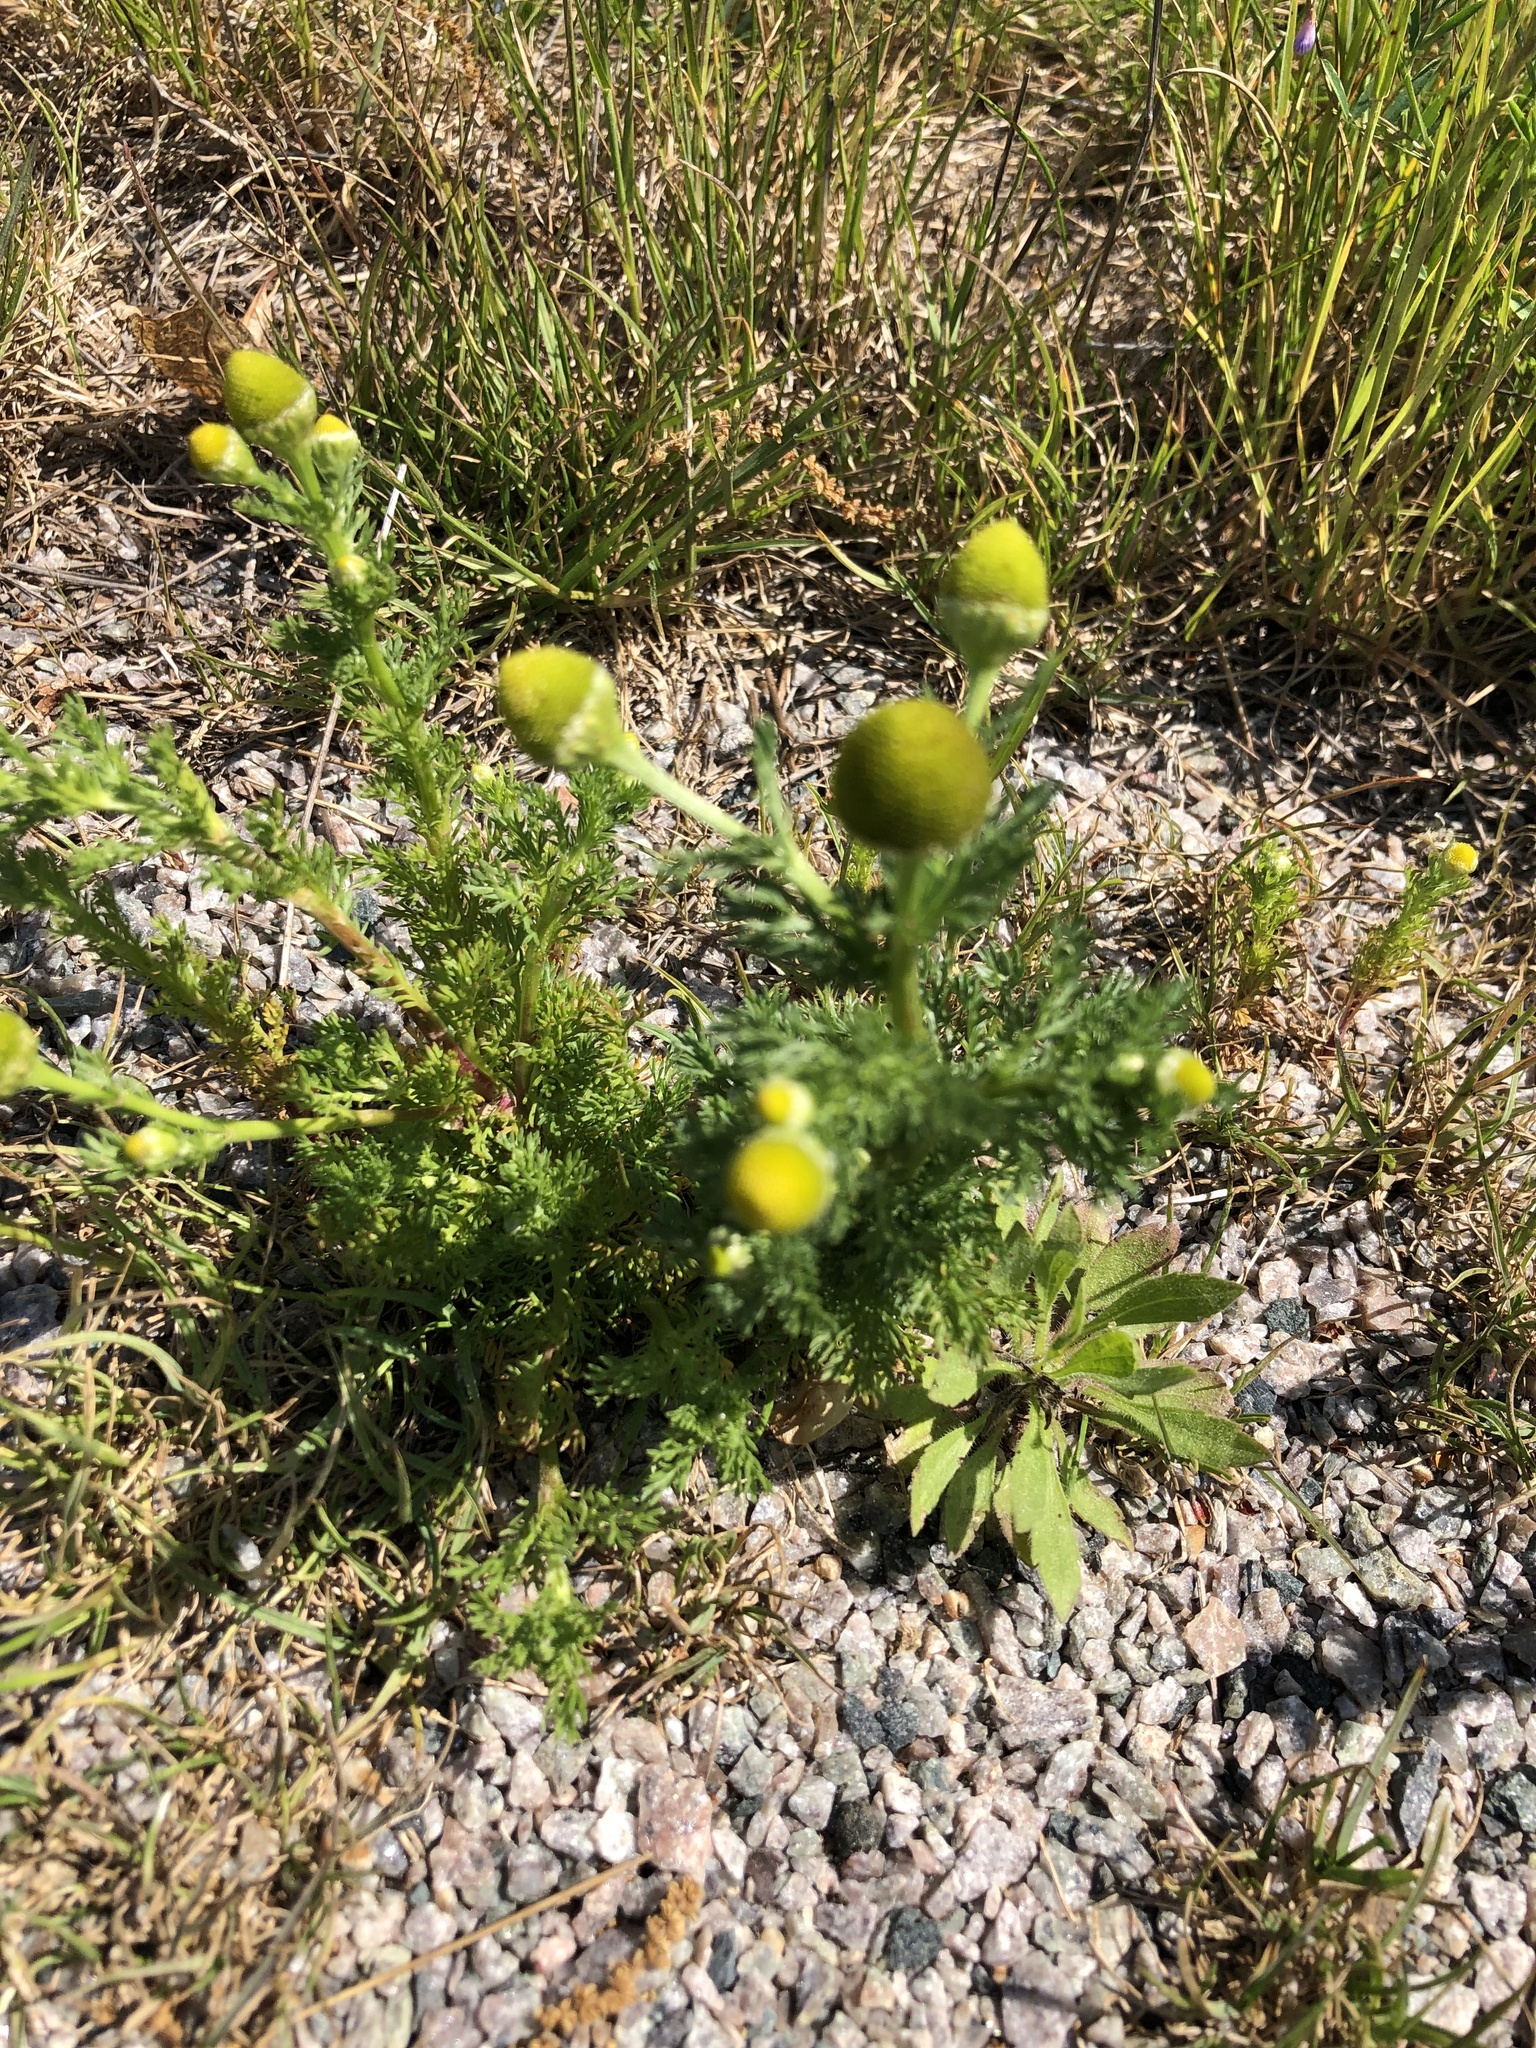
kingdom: Plantae
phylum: Tracheophyta
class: Magnoliopsida
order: Asterales
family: Asteraceae
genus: Matricaria
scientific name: Matricaria discoidea
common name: Disc mayweed
